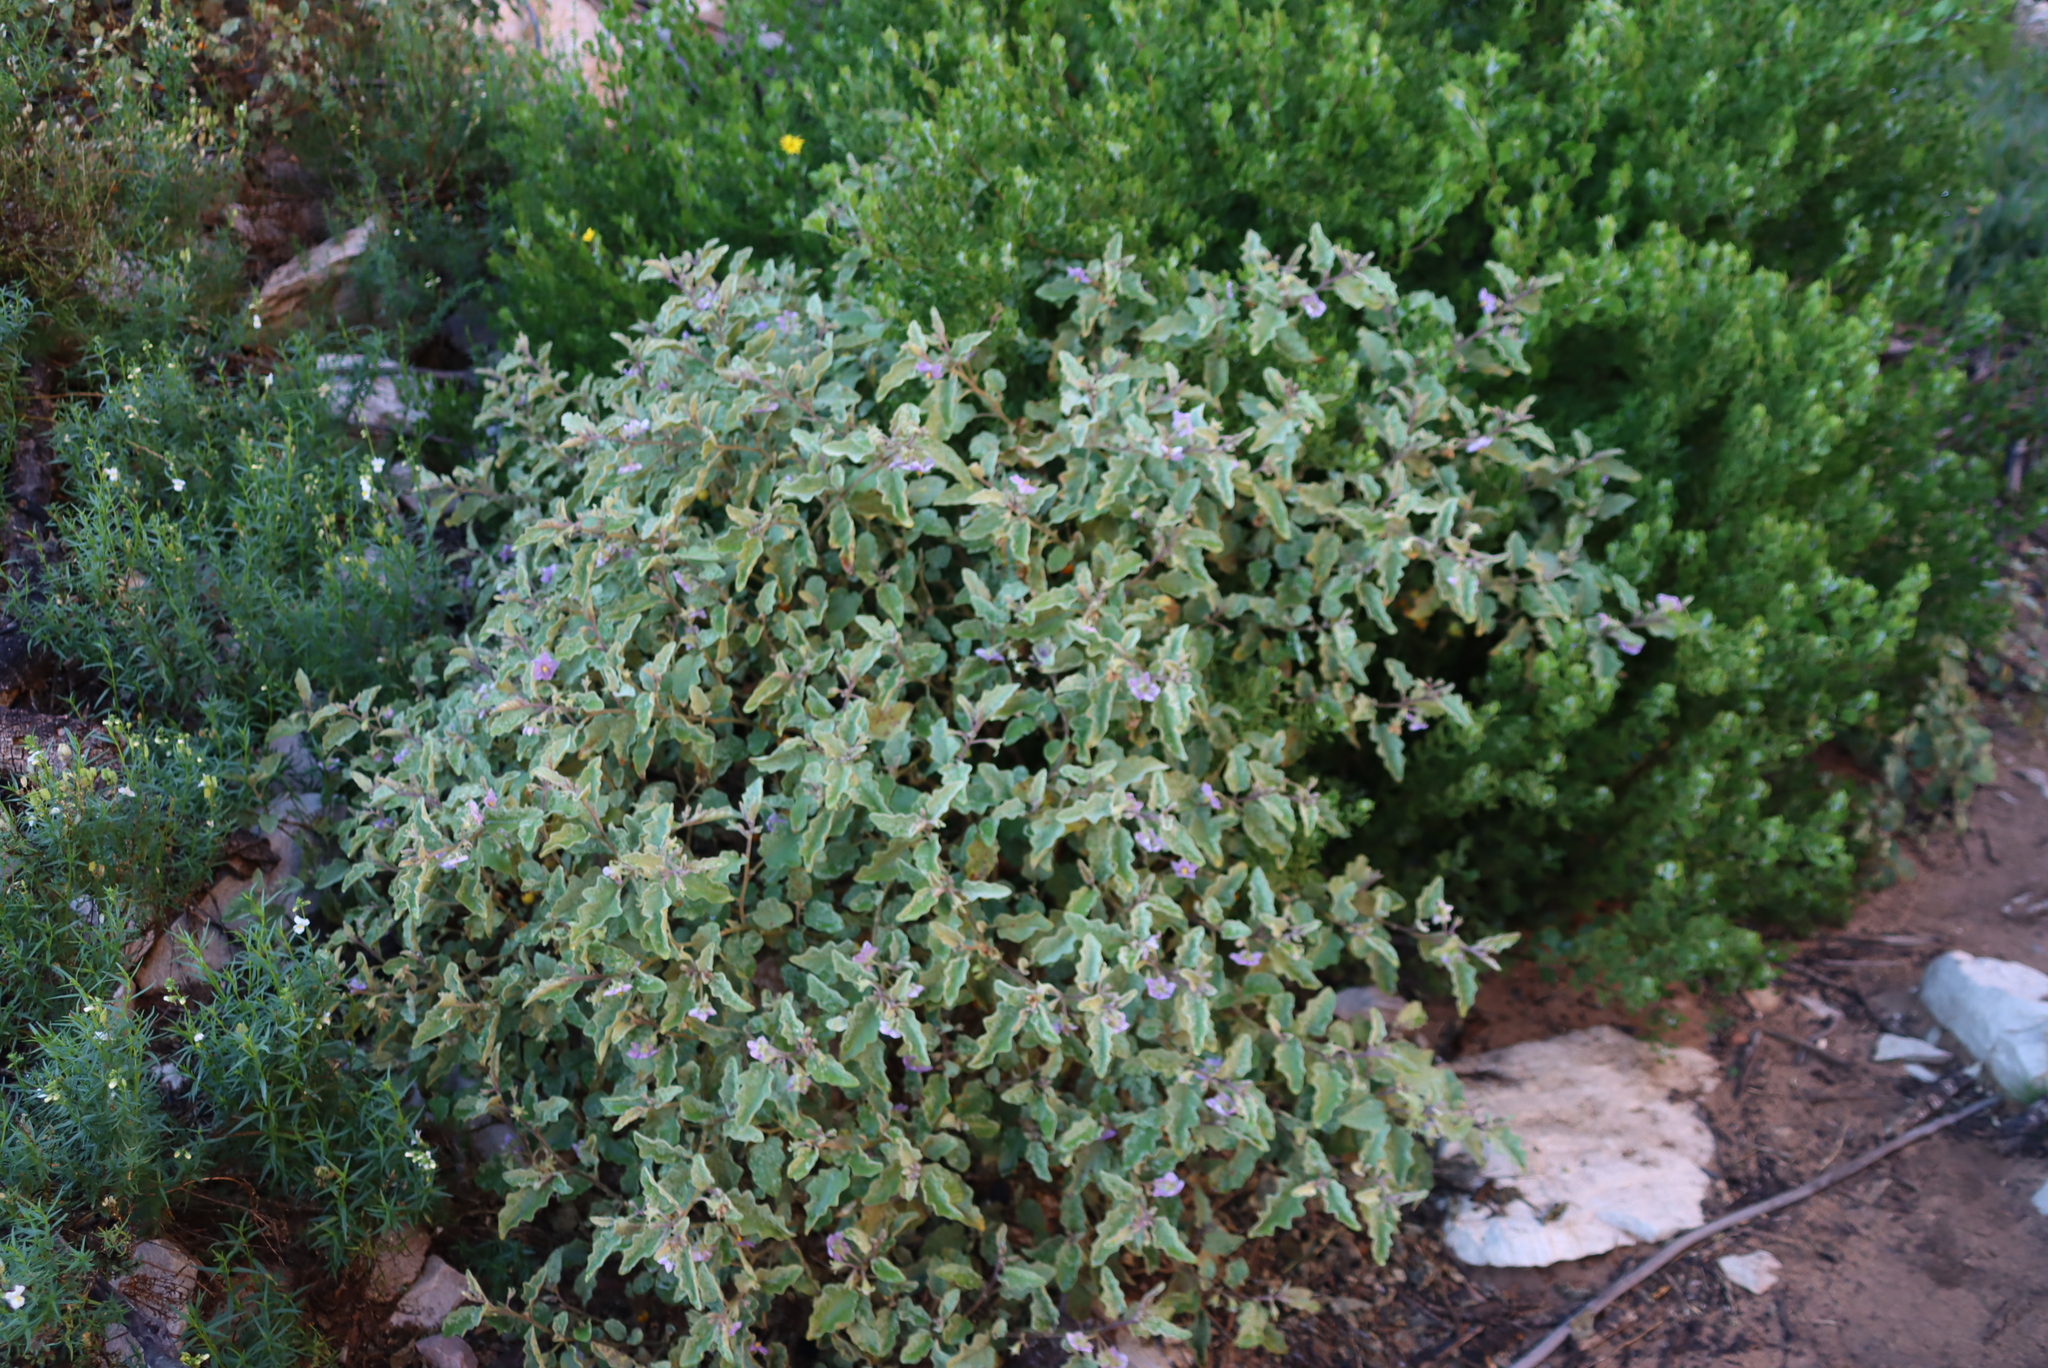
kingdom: Plantae
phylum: Tracheophyta
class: Magnoliopsida
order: Solanales
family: Solanaceae
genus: Solanum
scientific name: Solanum tomentosum
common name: Wild aubergine
